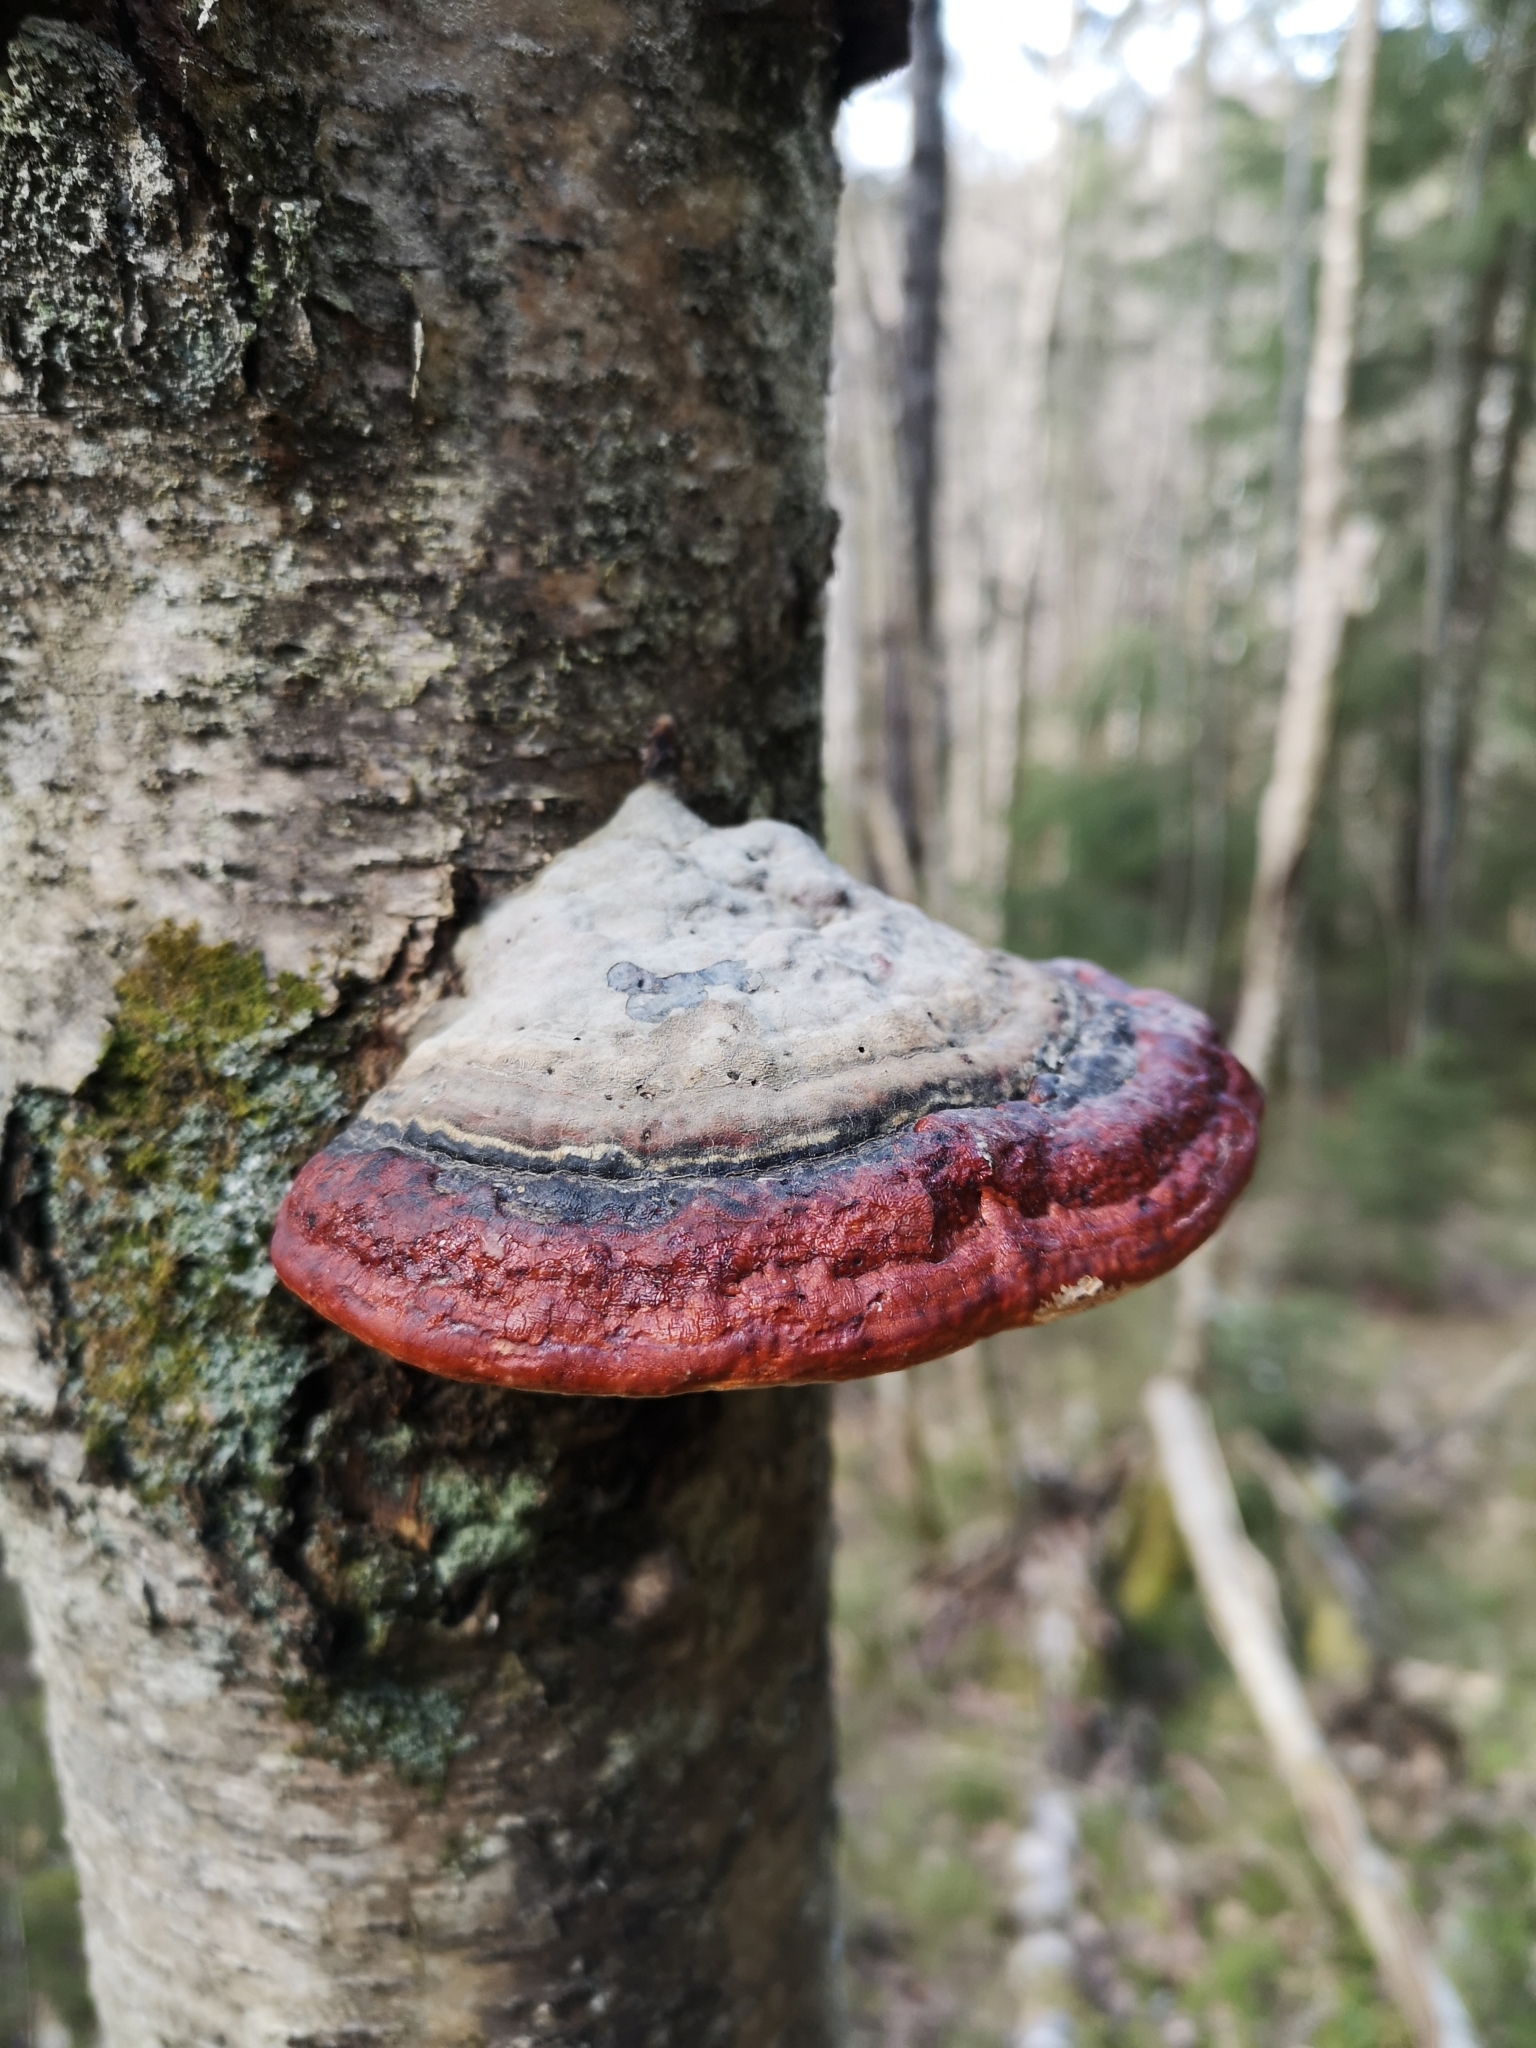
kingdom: Fungi
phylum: Basidiomycota
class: Agaricomycetes
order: Polyporales
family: Fomitopsidaceae
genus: Fomitopsis
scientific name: Fomitopsis pinicola
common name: Red-belted bracket
